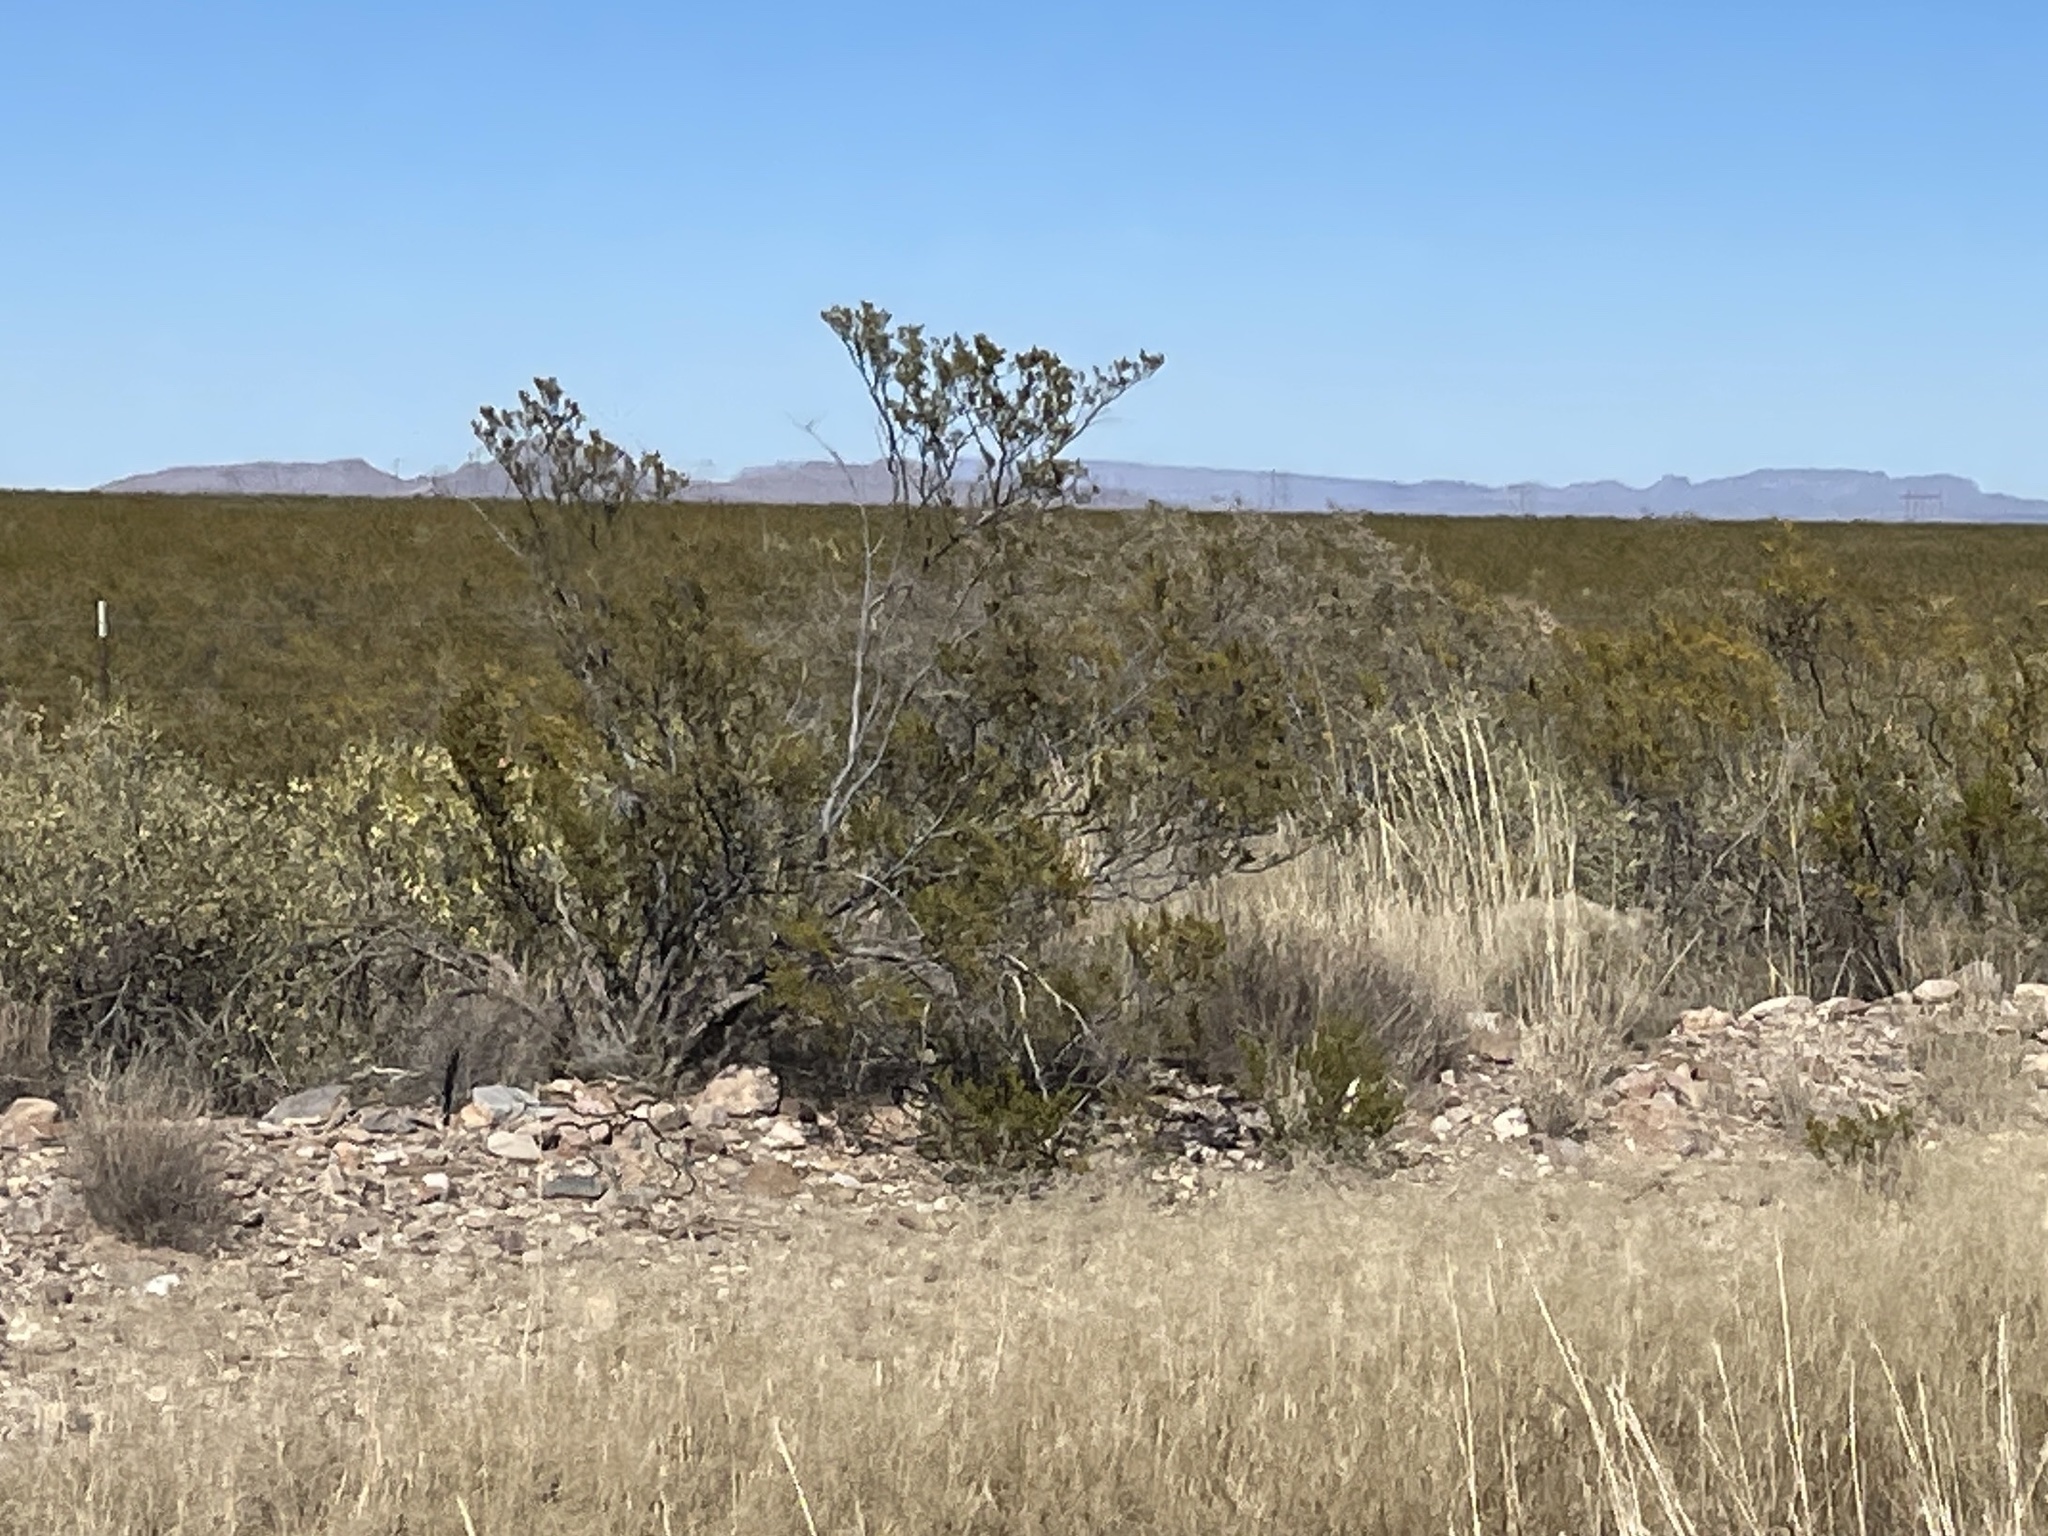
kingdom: Plantae
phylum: Tracheophyta
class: Magnoliopsida
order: Zygophyllales
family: Zygophyllaceae
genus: Larrea
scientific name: Larrea tridentata
